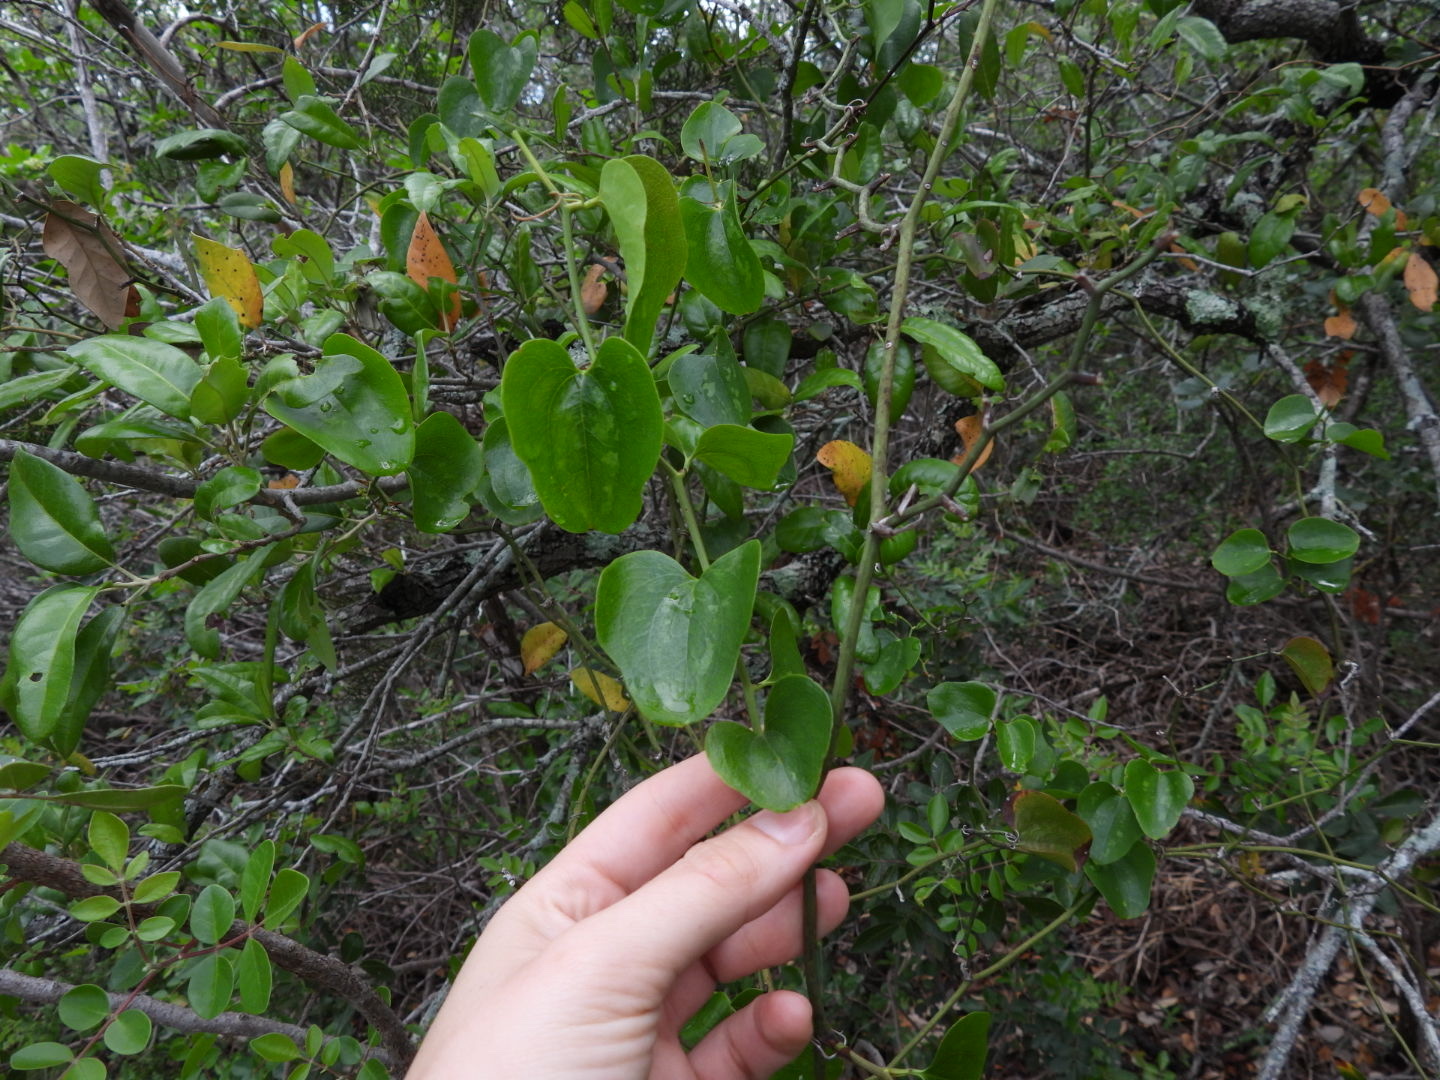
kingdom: Plantae
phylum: Tracheophyta
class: Liliopsida
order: Liliales
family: Smilacaceae
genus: Smilax
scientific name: Smilax bona-nox
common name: Catbrier
